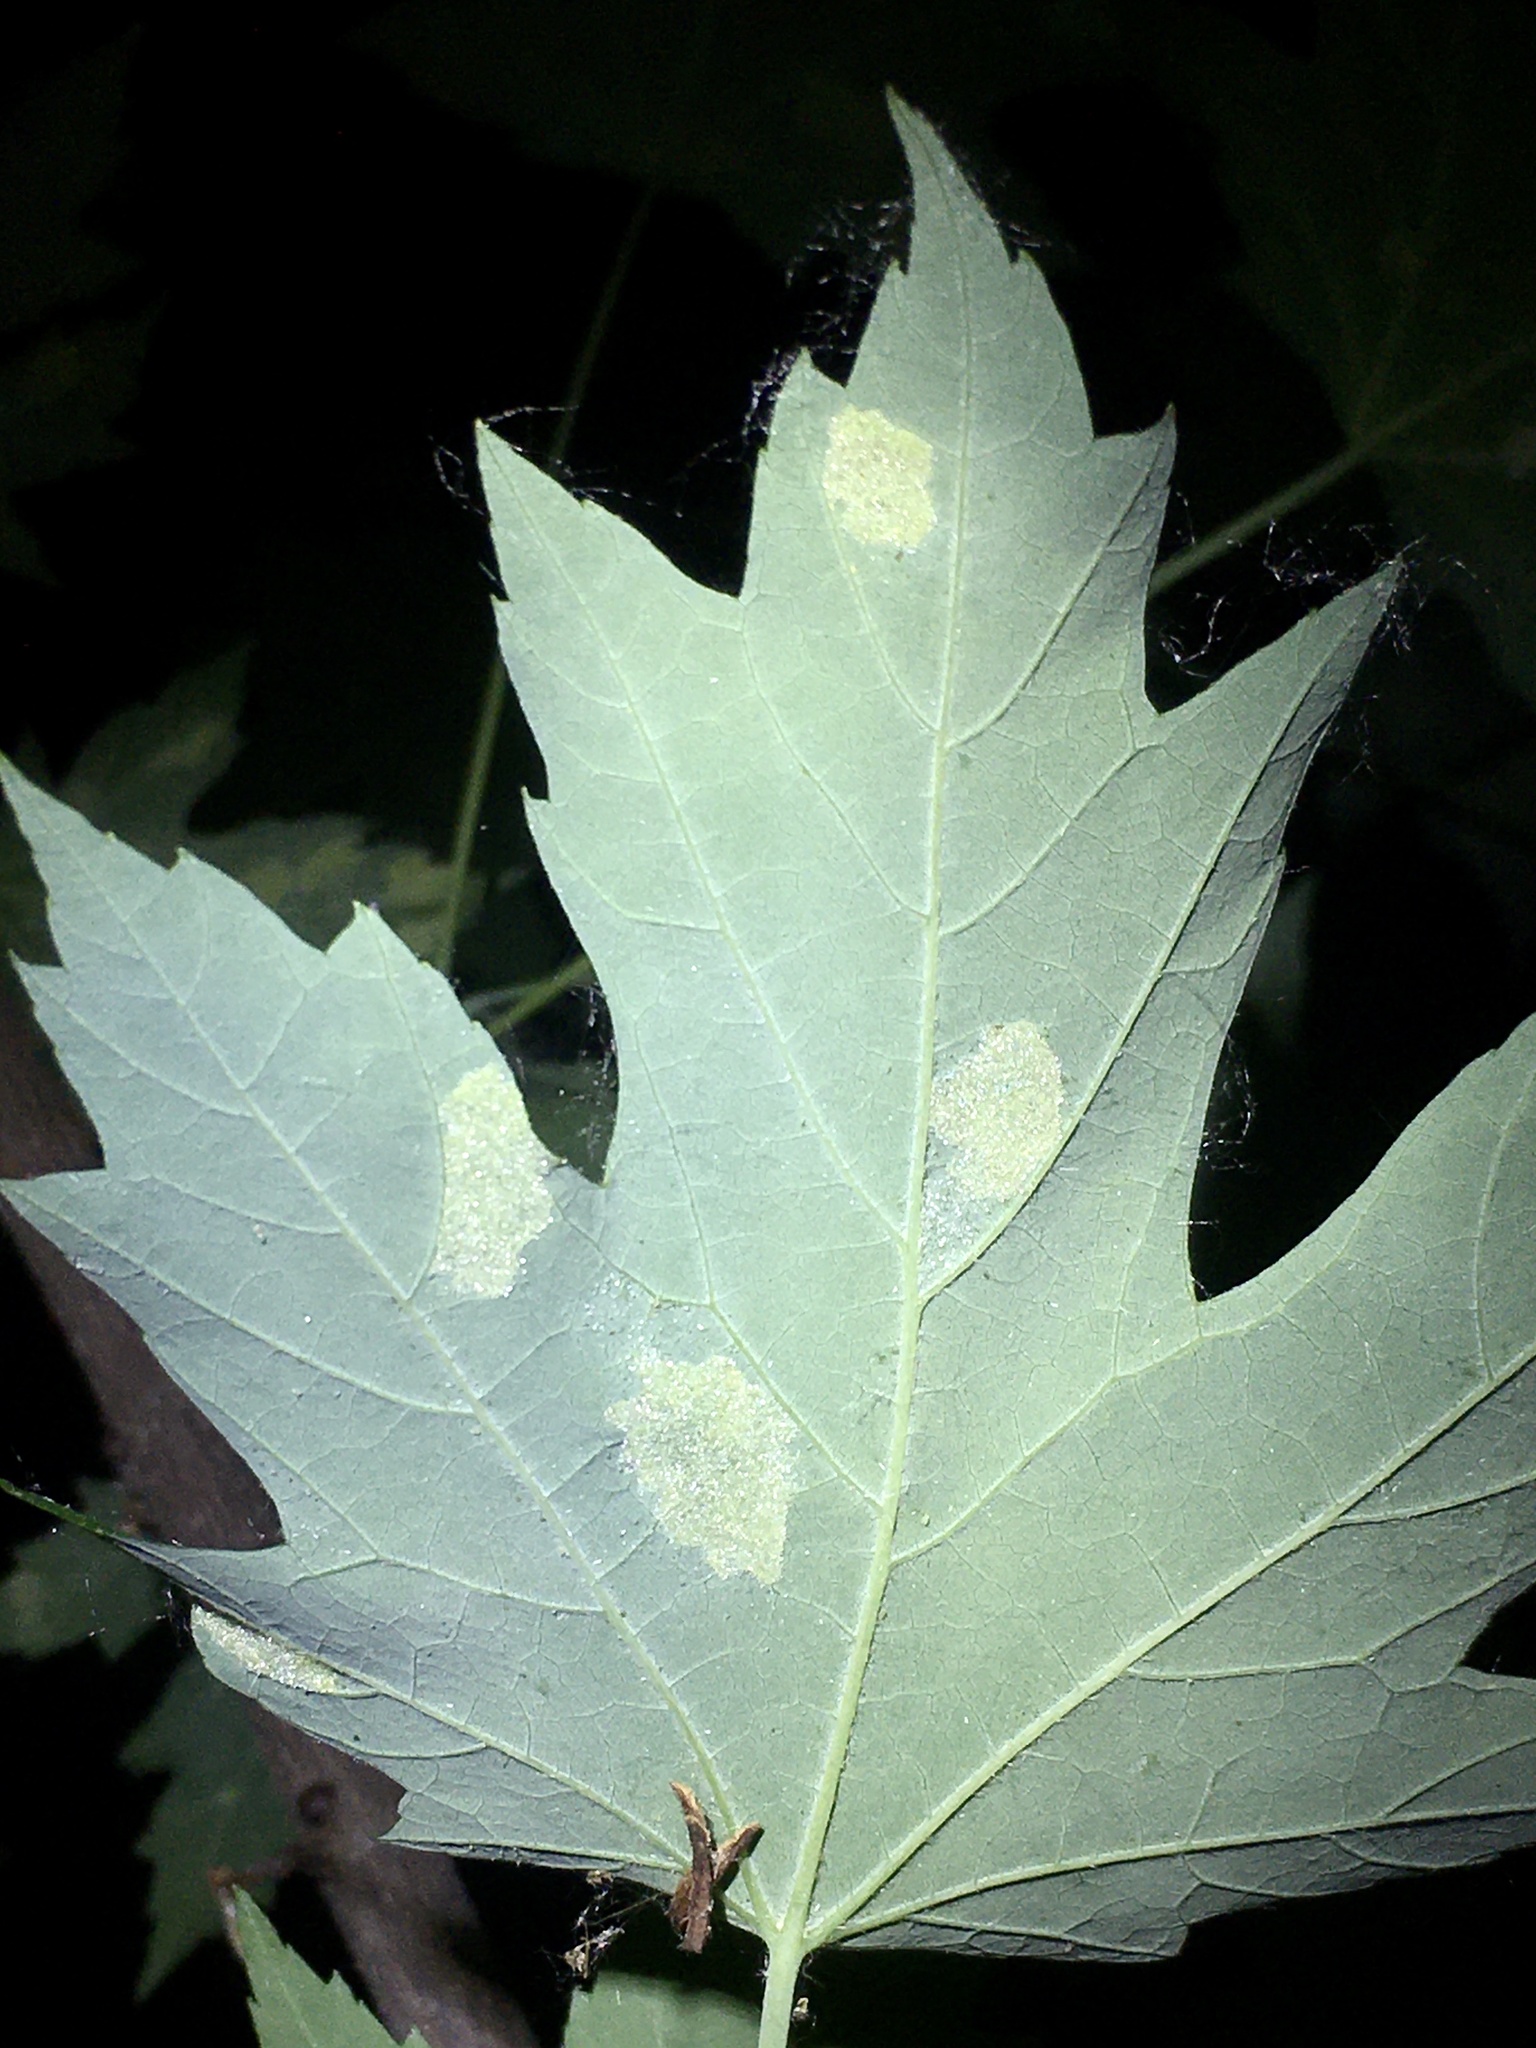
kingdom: Animalia
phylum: Arthropoda
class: Arachnida
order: Trombidiformes
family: Eriophyidae
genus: Eriophyes
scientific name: Eriophyes
